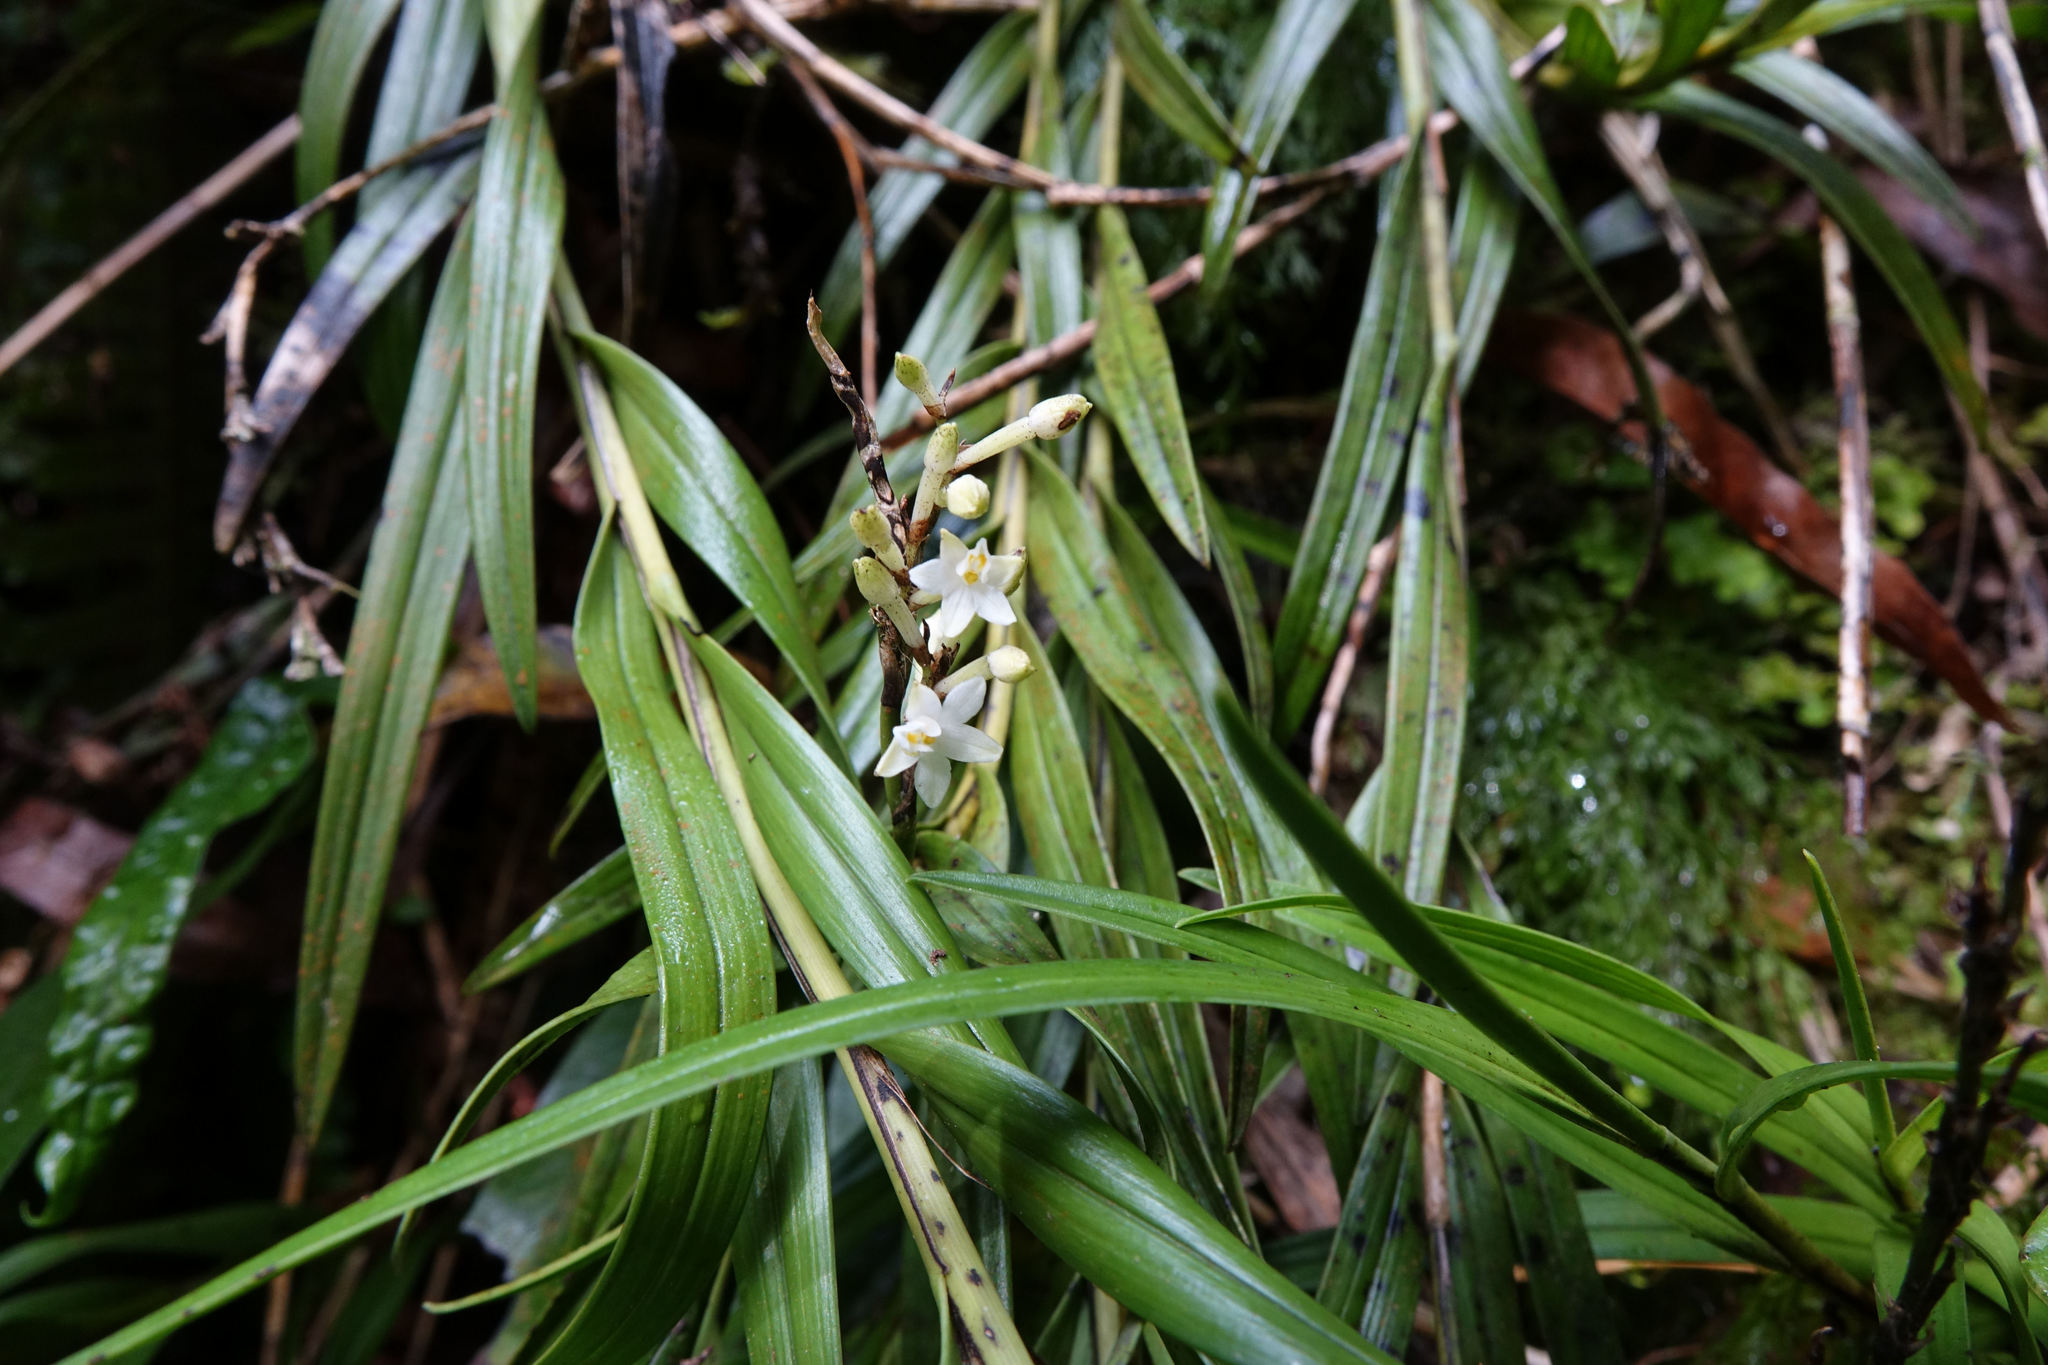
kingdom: Plantae
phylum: Tracheophyta
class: Liliopsida
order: Asparagales
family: Orchidaceae
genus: Earina
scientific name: Earina autumnalis
